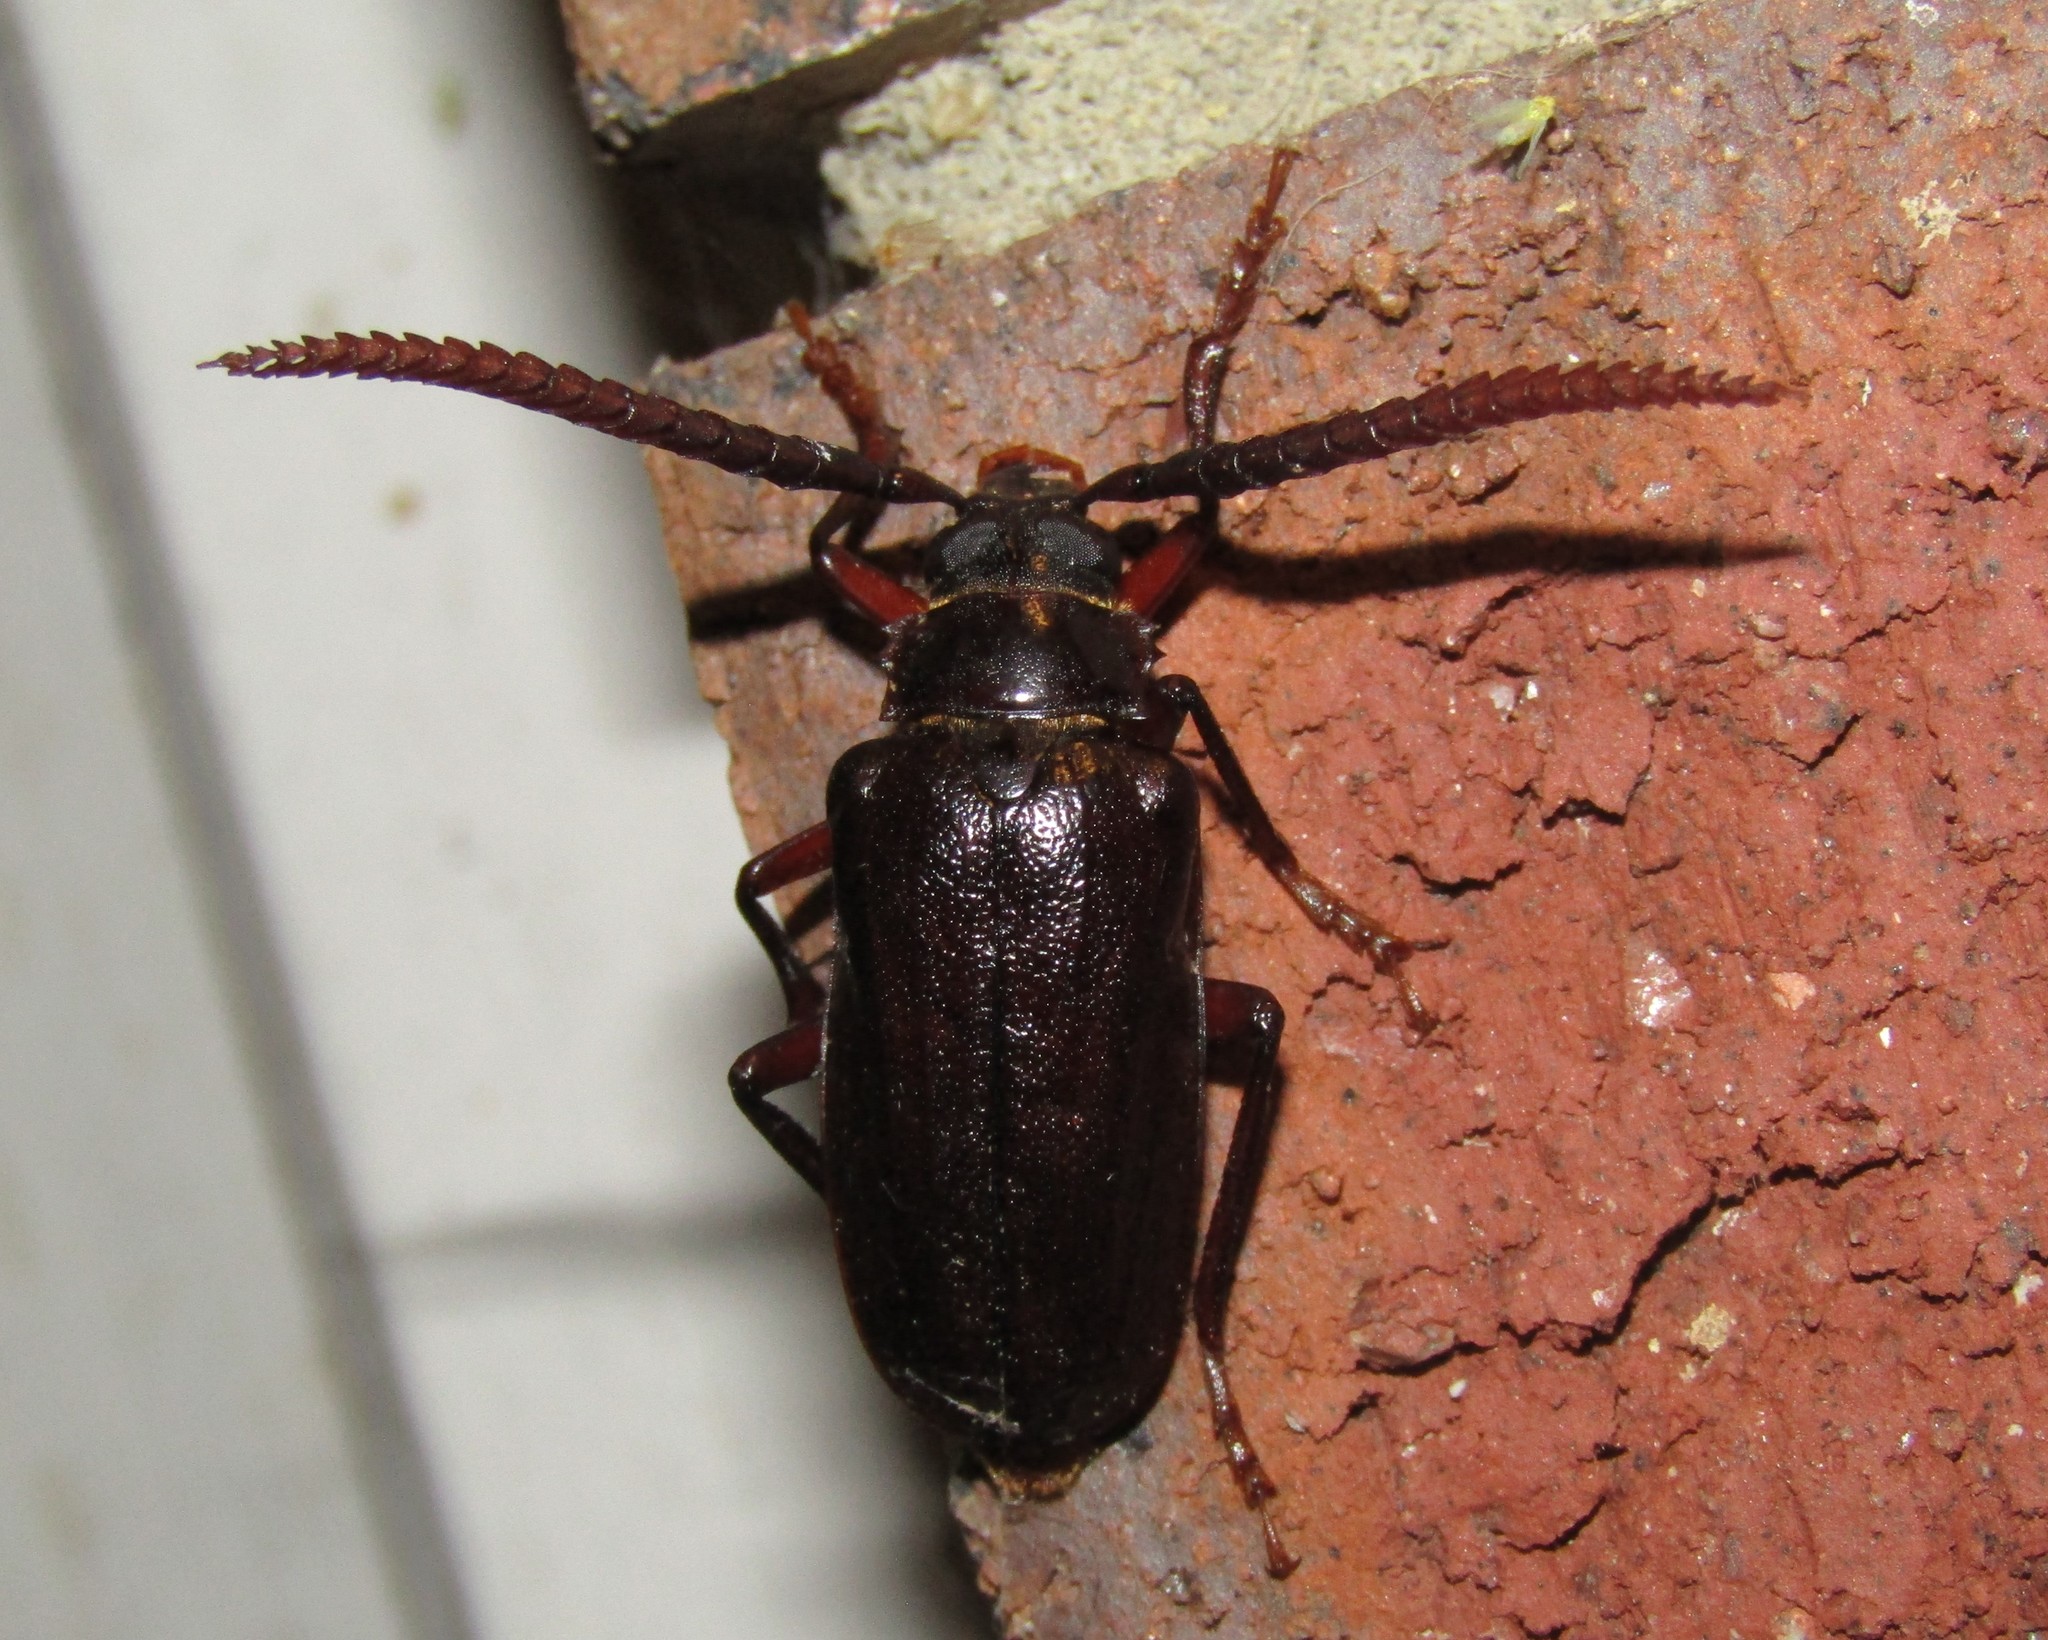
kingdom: Animalia
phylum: Arthropoda
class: Insecta
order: Coleoptera
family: Cerambycidae
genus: Prionus
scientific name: Prionus imbricornis
